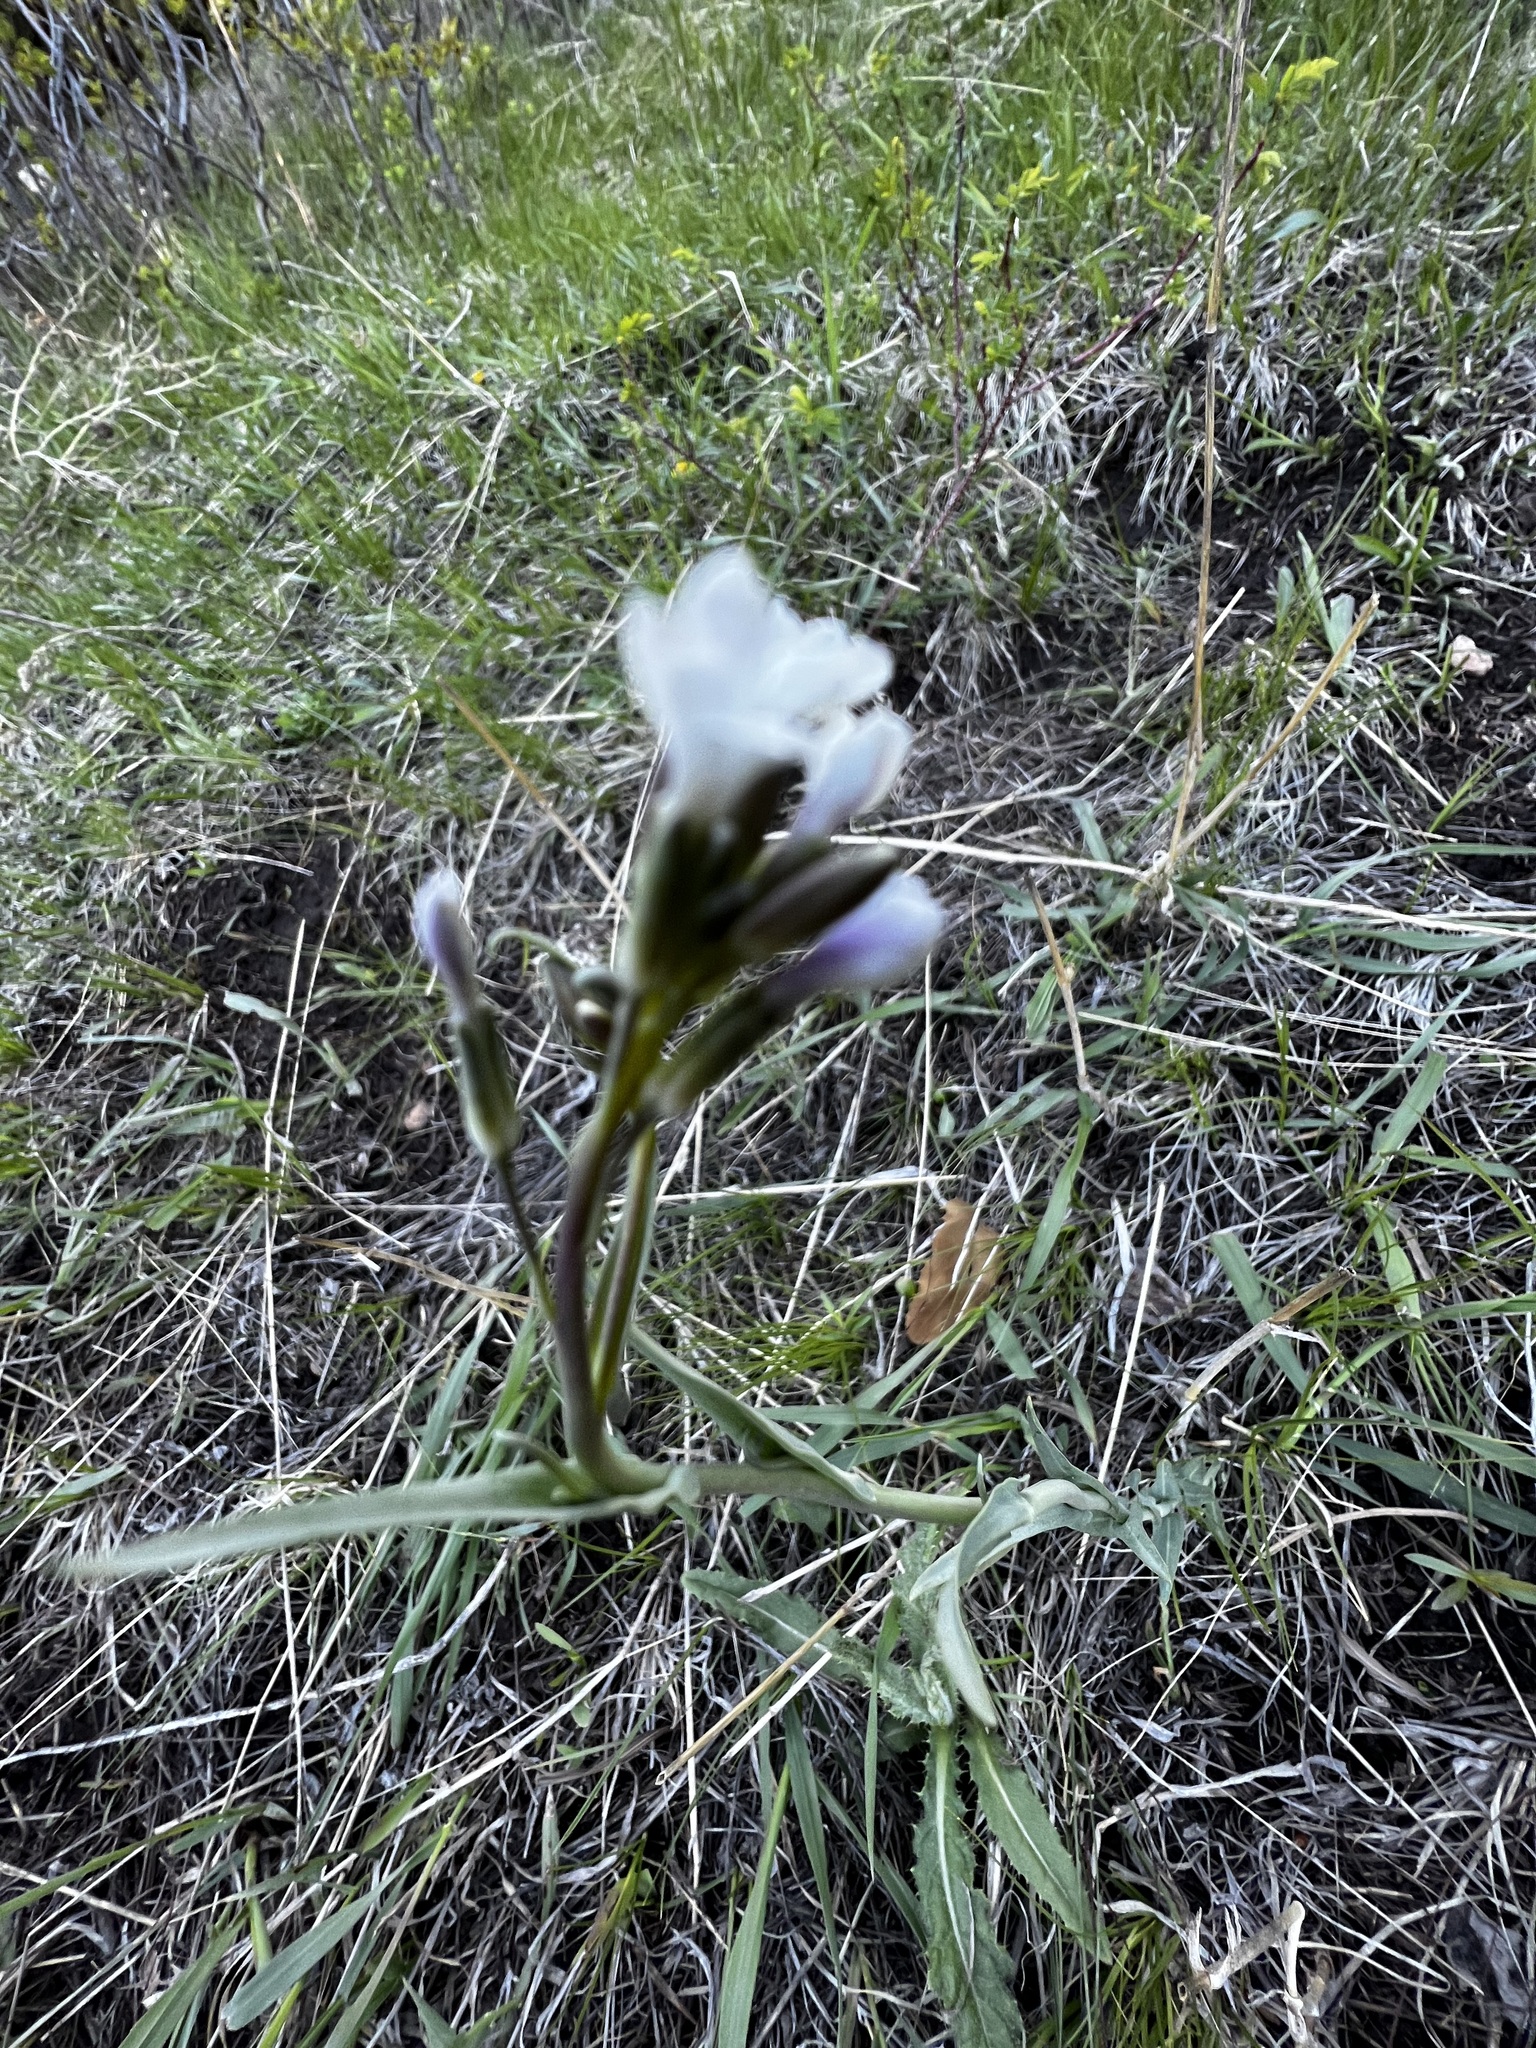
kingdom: Plantae
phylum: Tracheophyta
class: Magnoliopsida
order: Brassicales
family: Brassicaceae
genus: Boechera
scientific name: Boechera stricta
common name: Canadian rockcress
